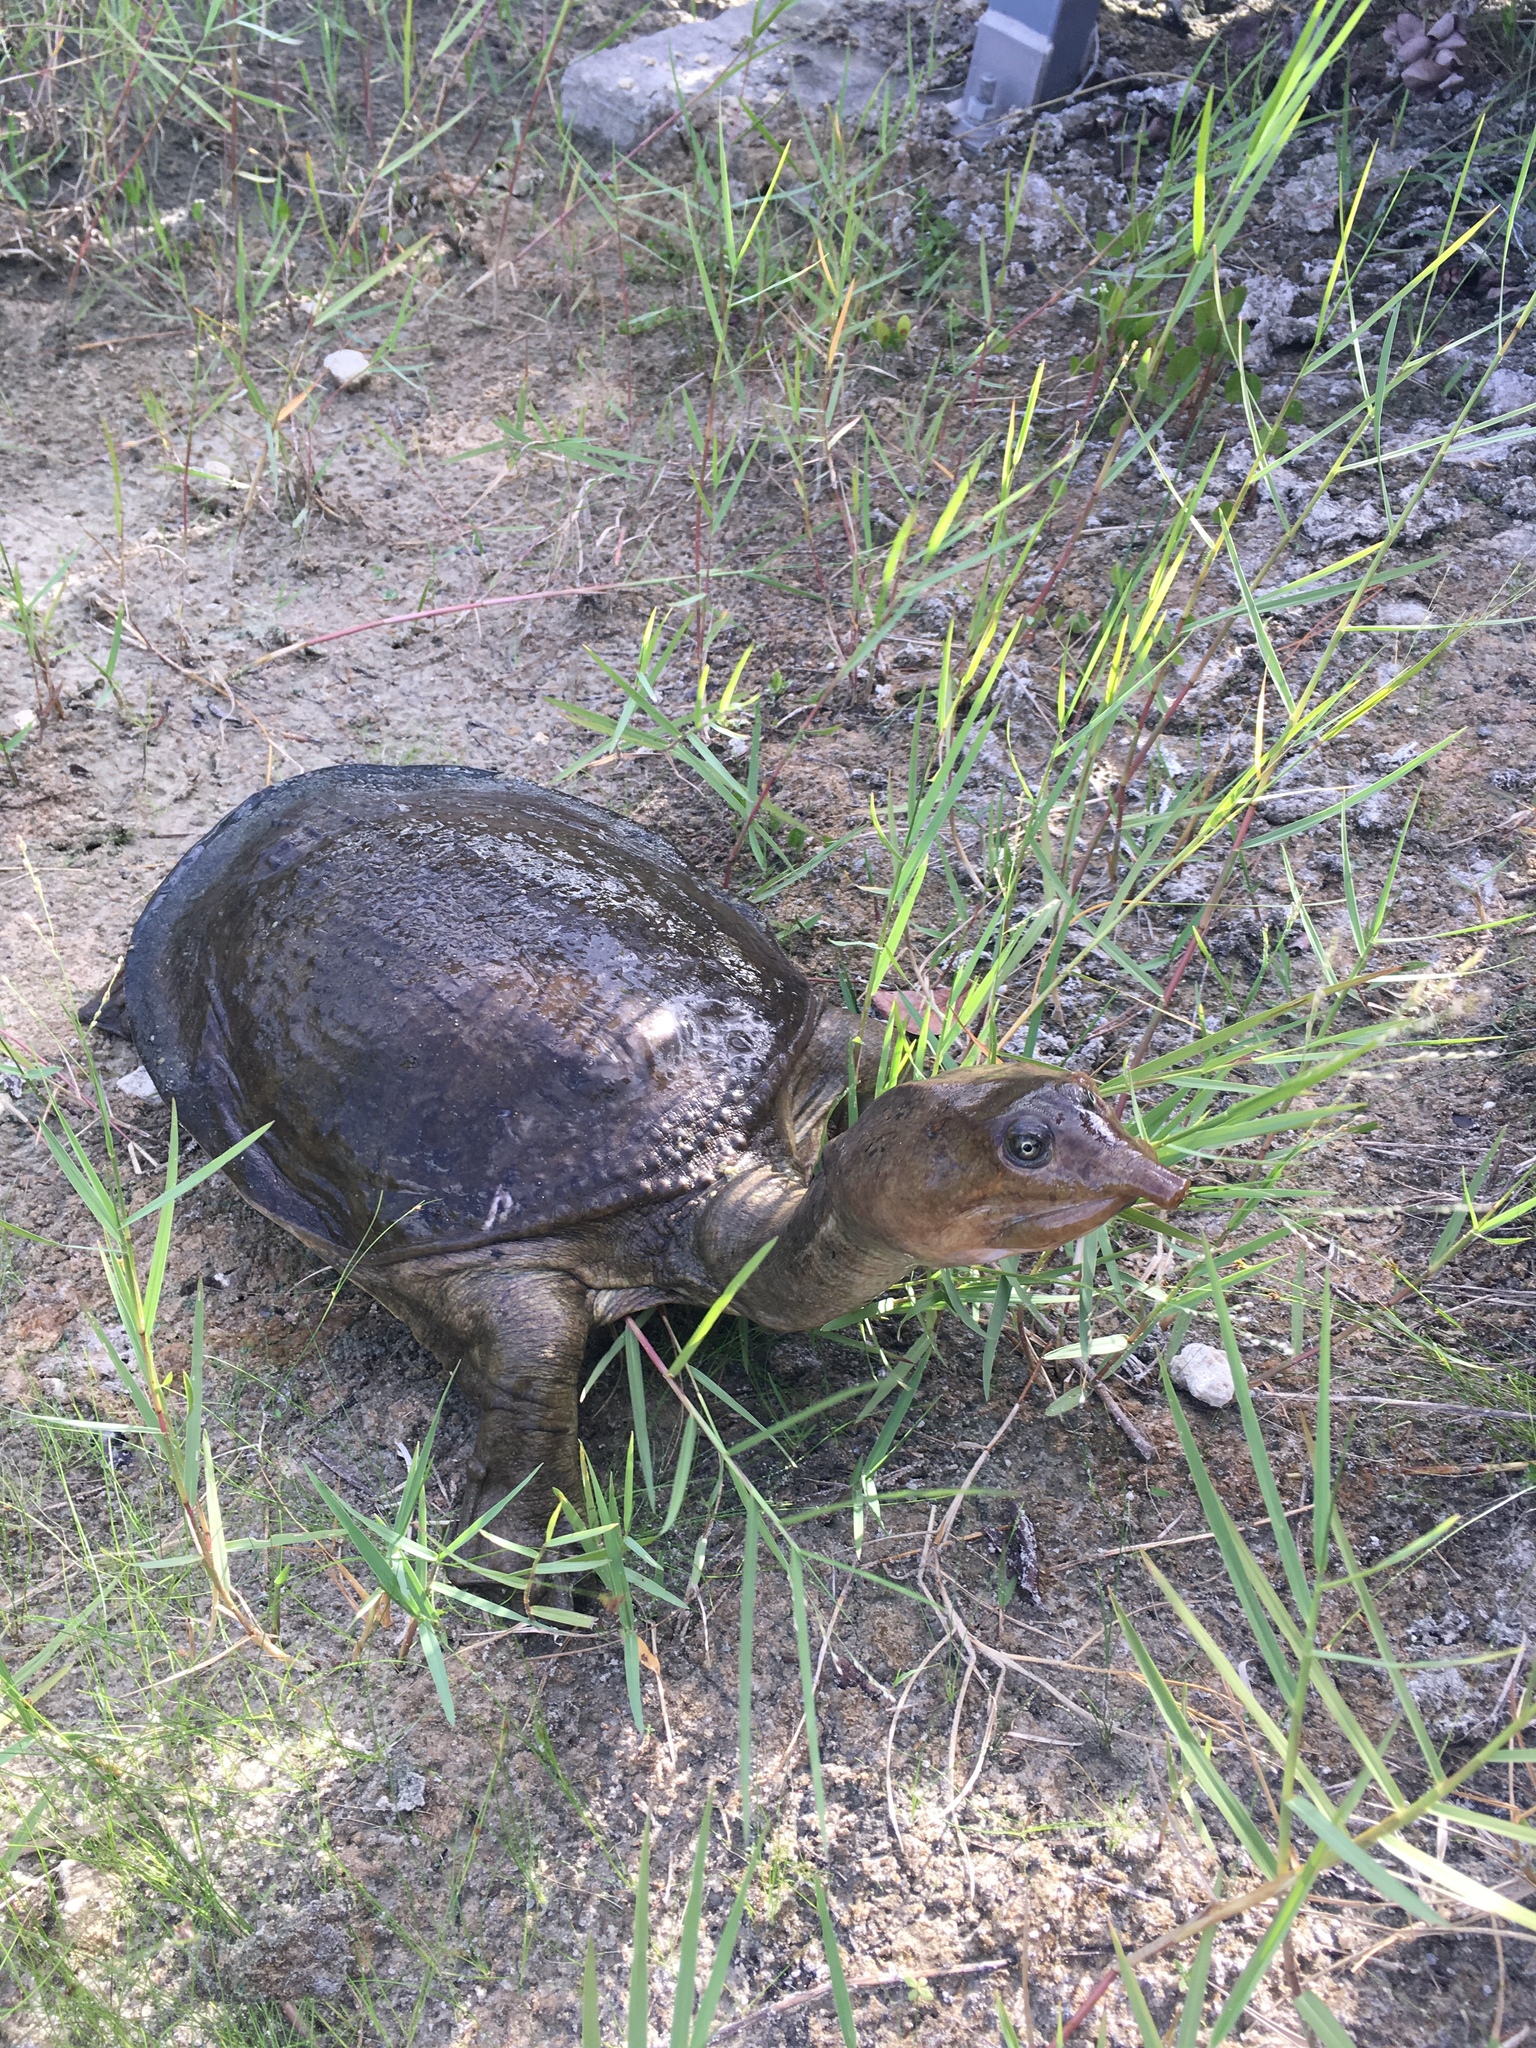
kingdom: Animalia
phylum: Chordata
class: Testudines
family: Trionychidae
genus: Apalone
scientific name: Apalone ferox
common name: Florida softshell turtle
